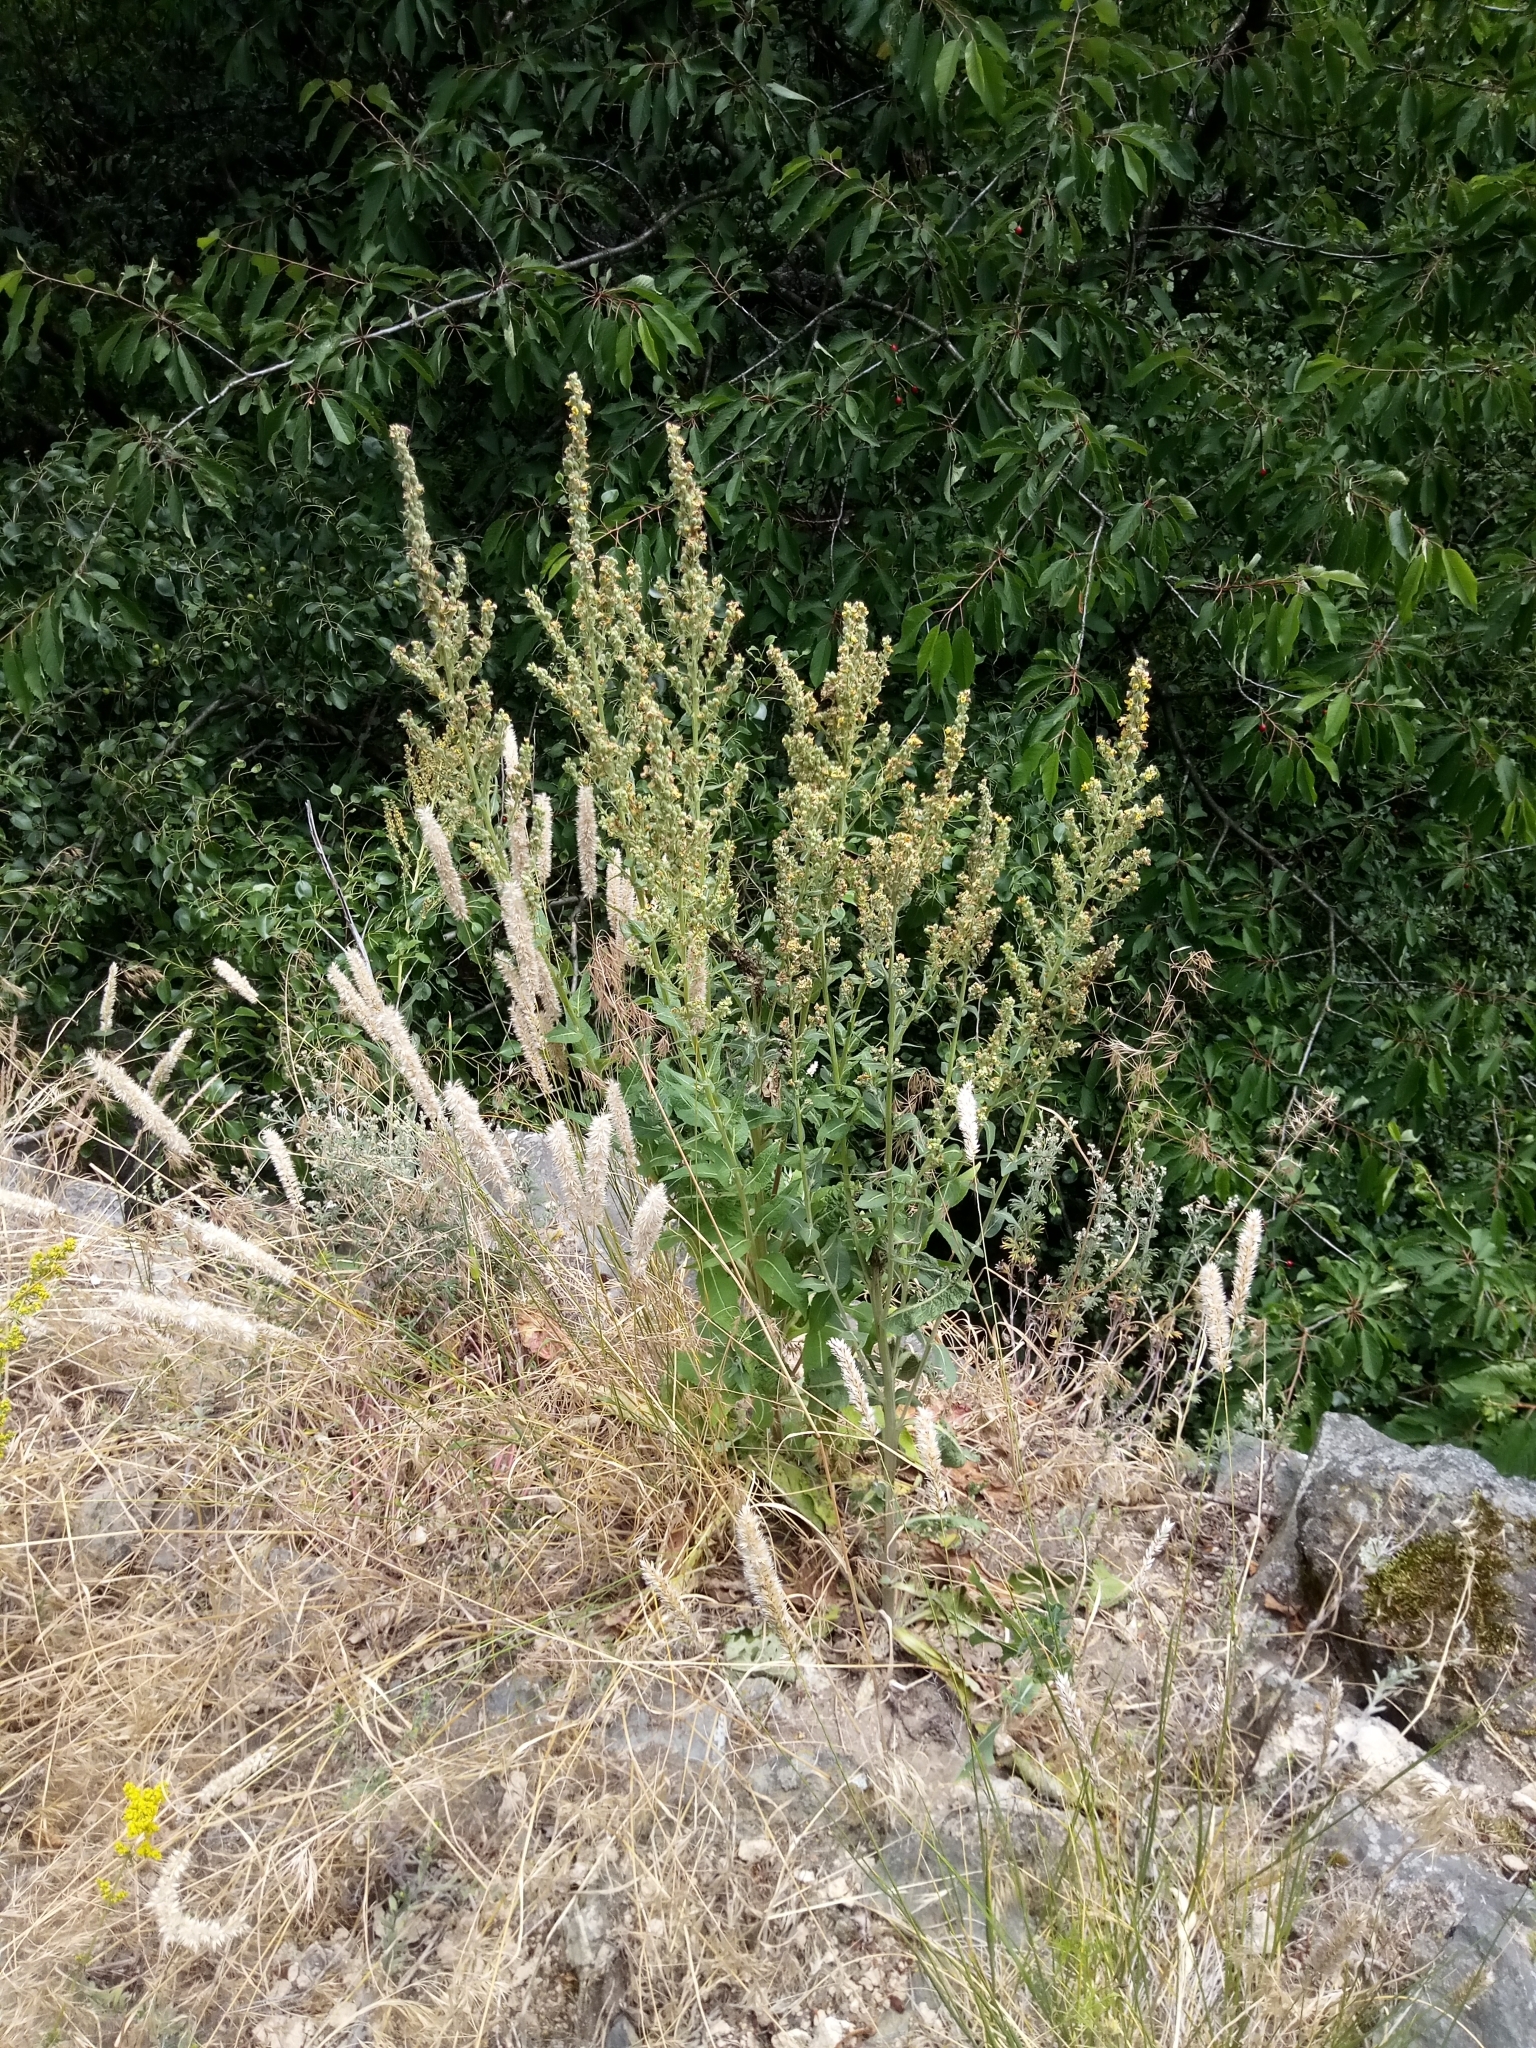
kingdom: Plantae
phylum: Tracheophyta
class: Magnoliopsida
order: Lamiales
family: Scrophulariaceae
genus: Verbascum
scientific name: Verbascum lychnitis
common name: White mullein
